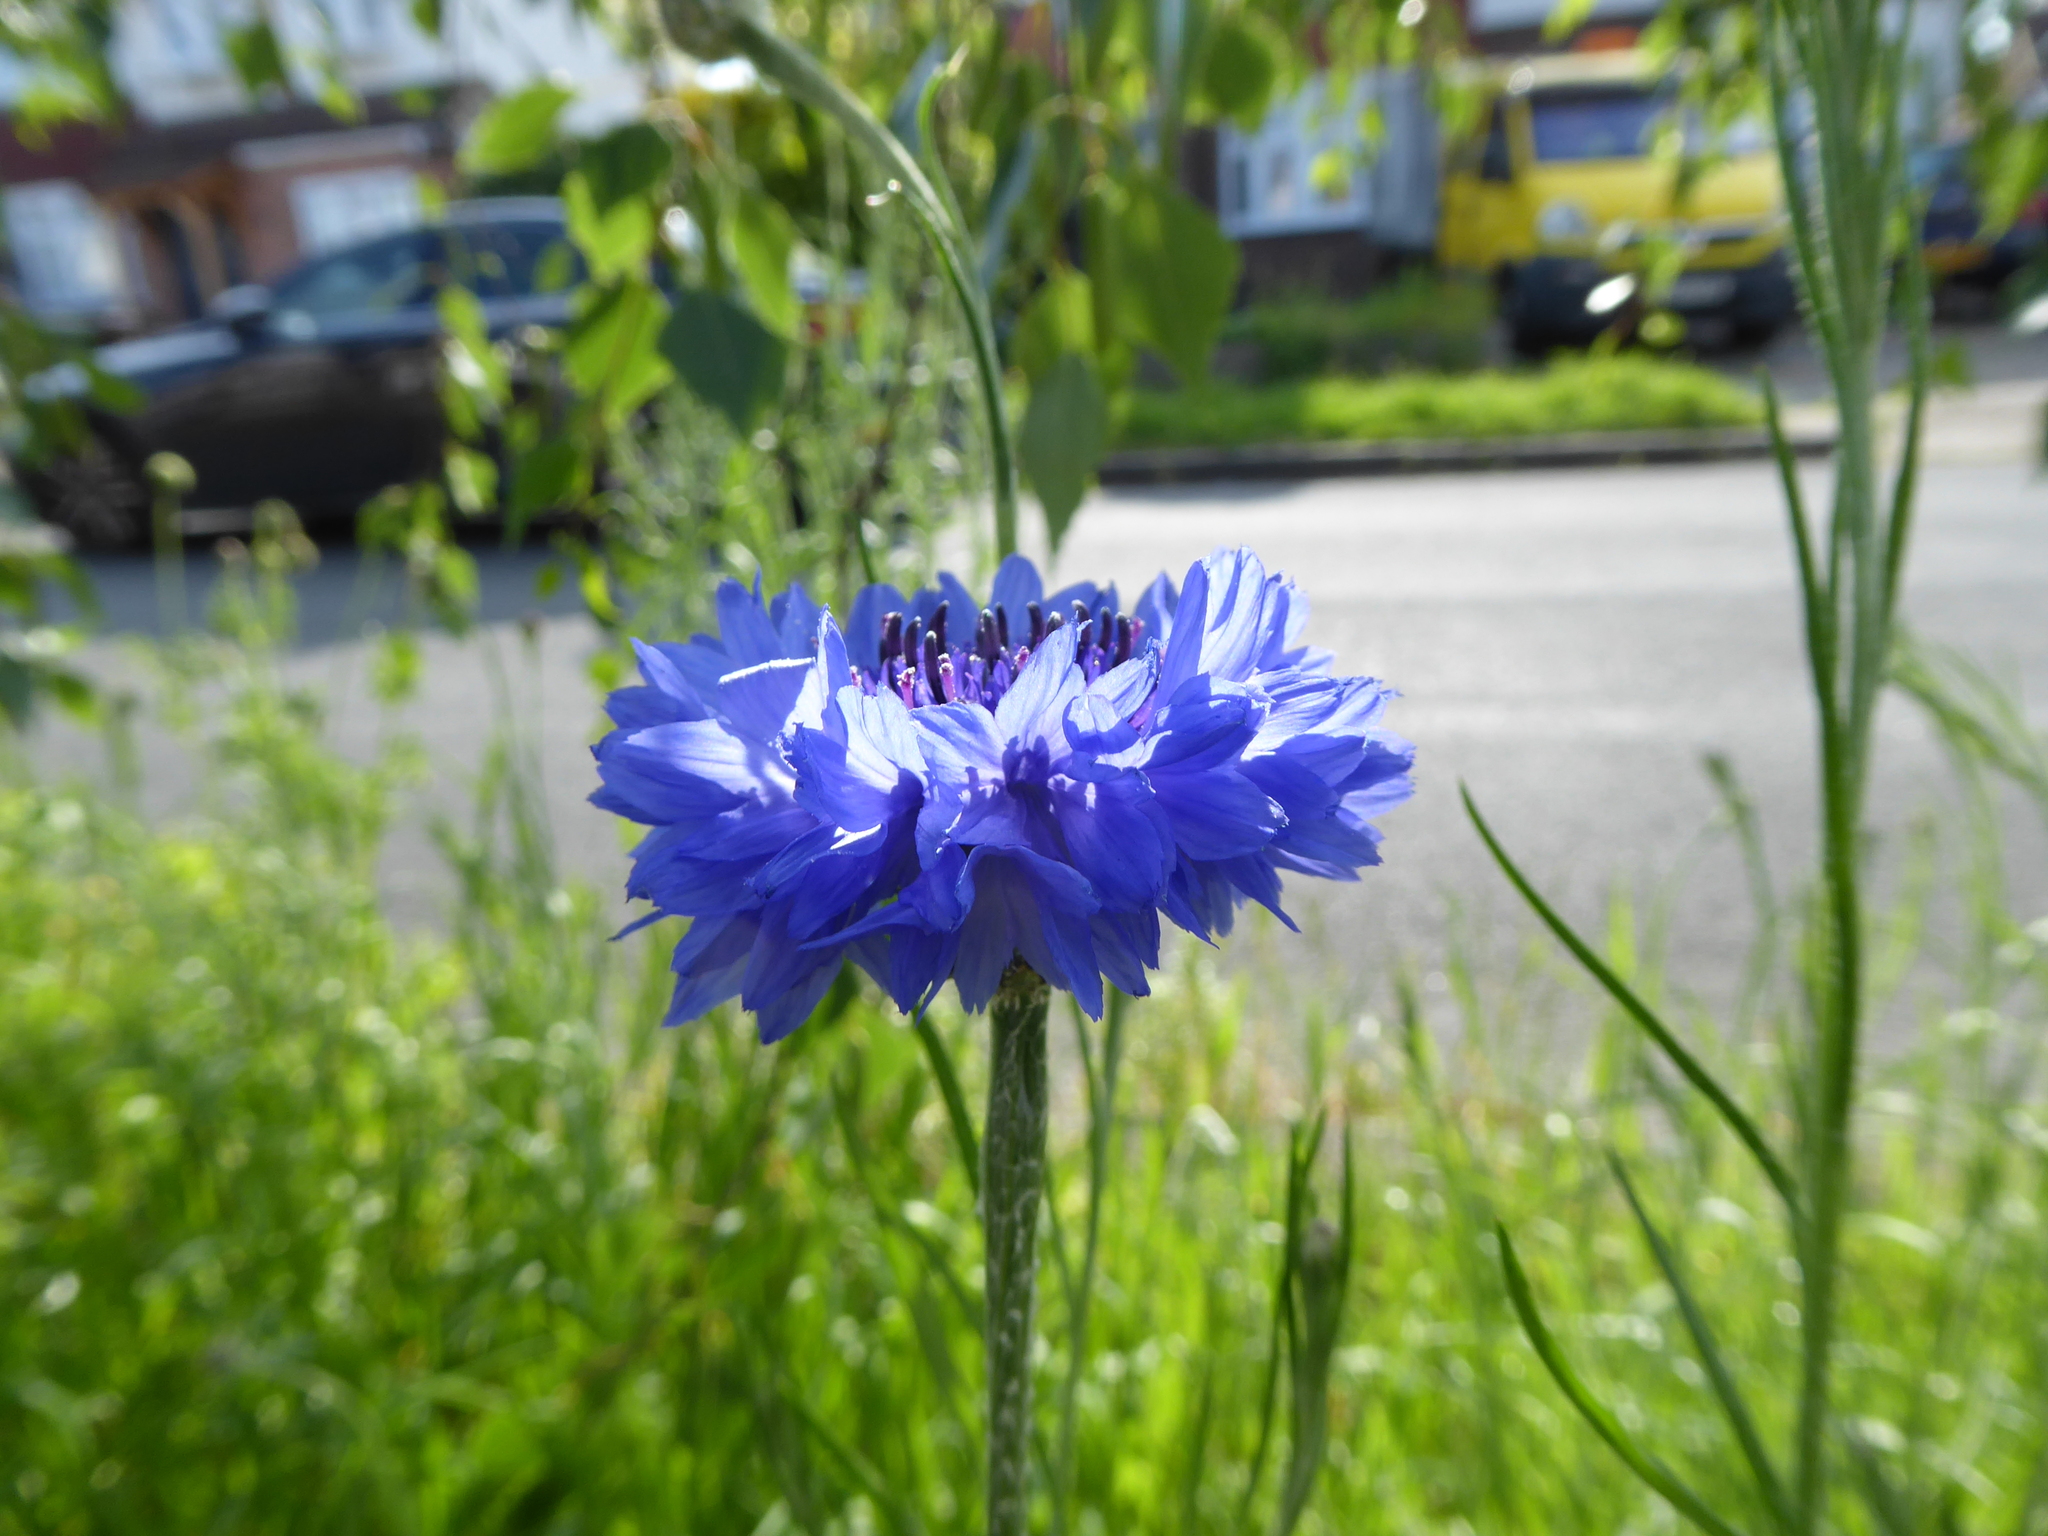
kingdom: Plantae
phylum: Tracheophyta
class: Magnoliopsida
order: Asterales
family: Asteraceae
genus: Centaurea
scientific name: Centaurea cyanus
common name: Cornflower
